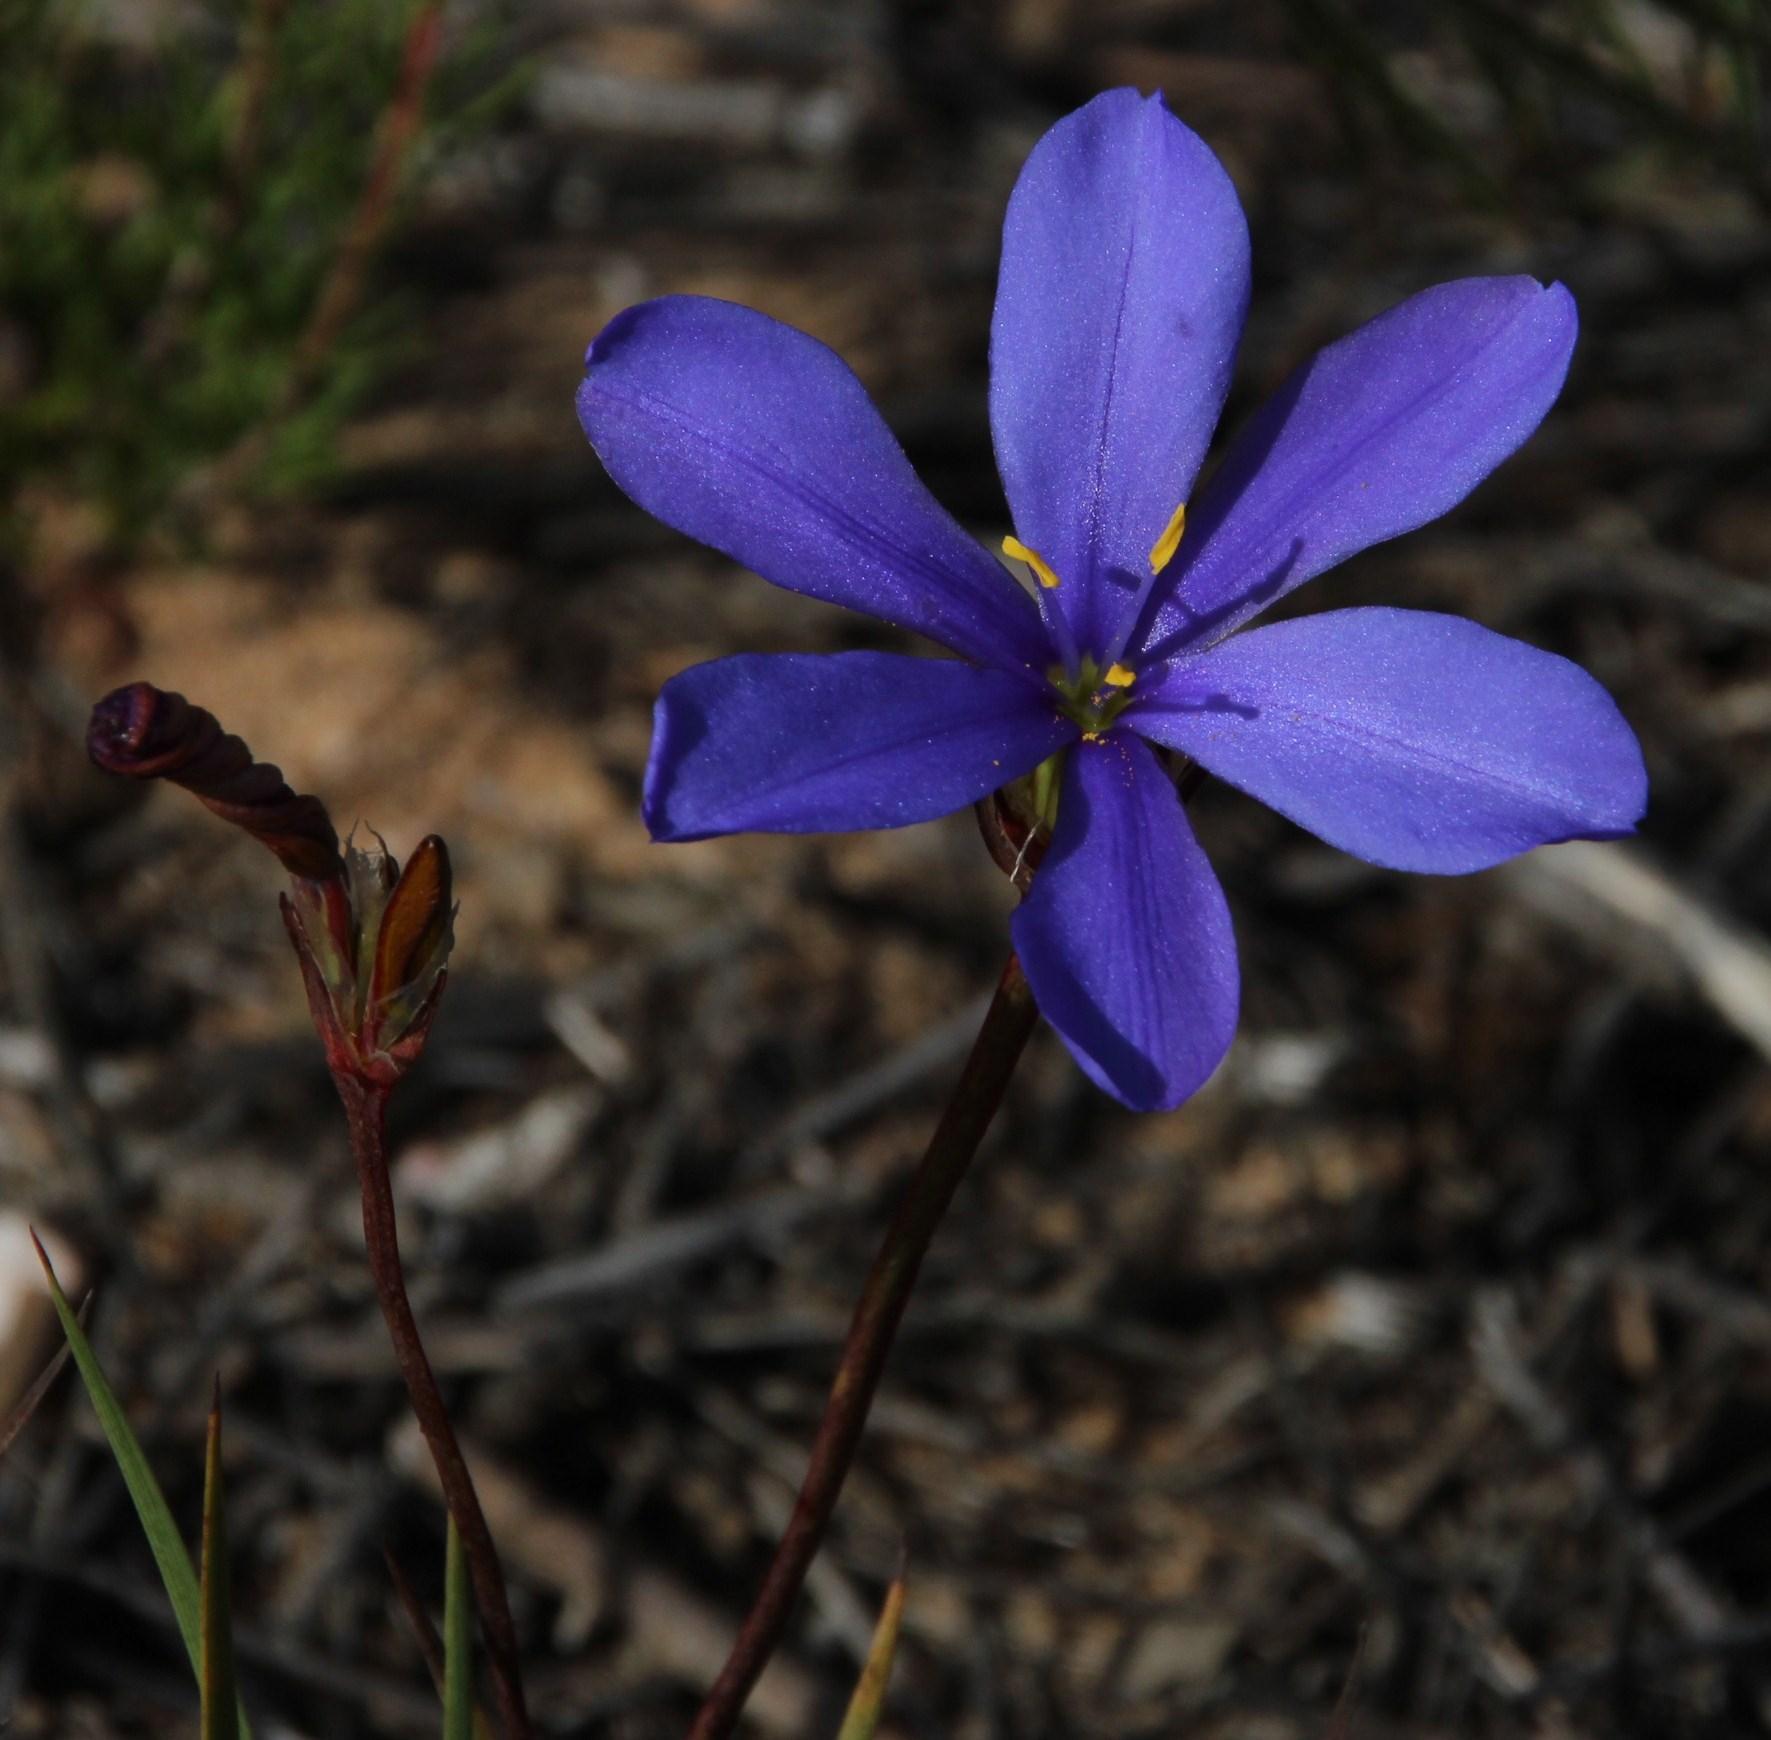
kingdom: Plantae
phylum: Tracheophyta
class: Liliopsida
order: Asparagales
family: Iridaceae
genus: Aristea
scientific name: Aristea africana
